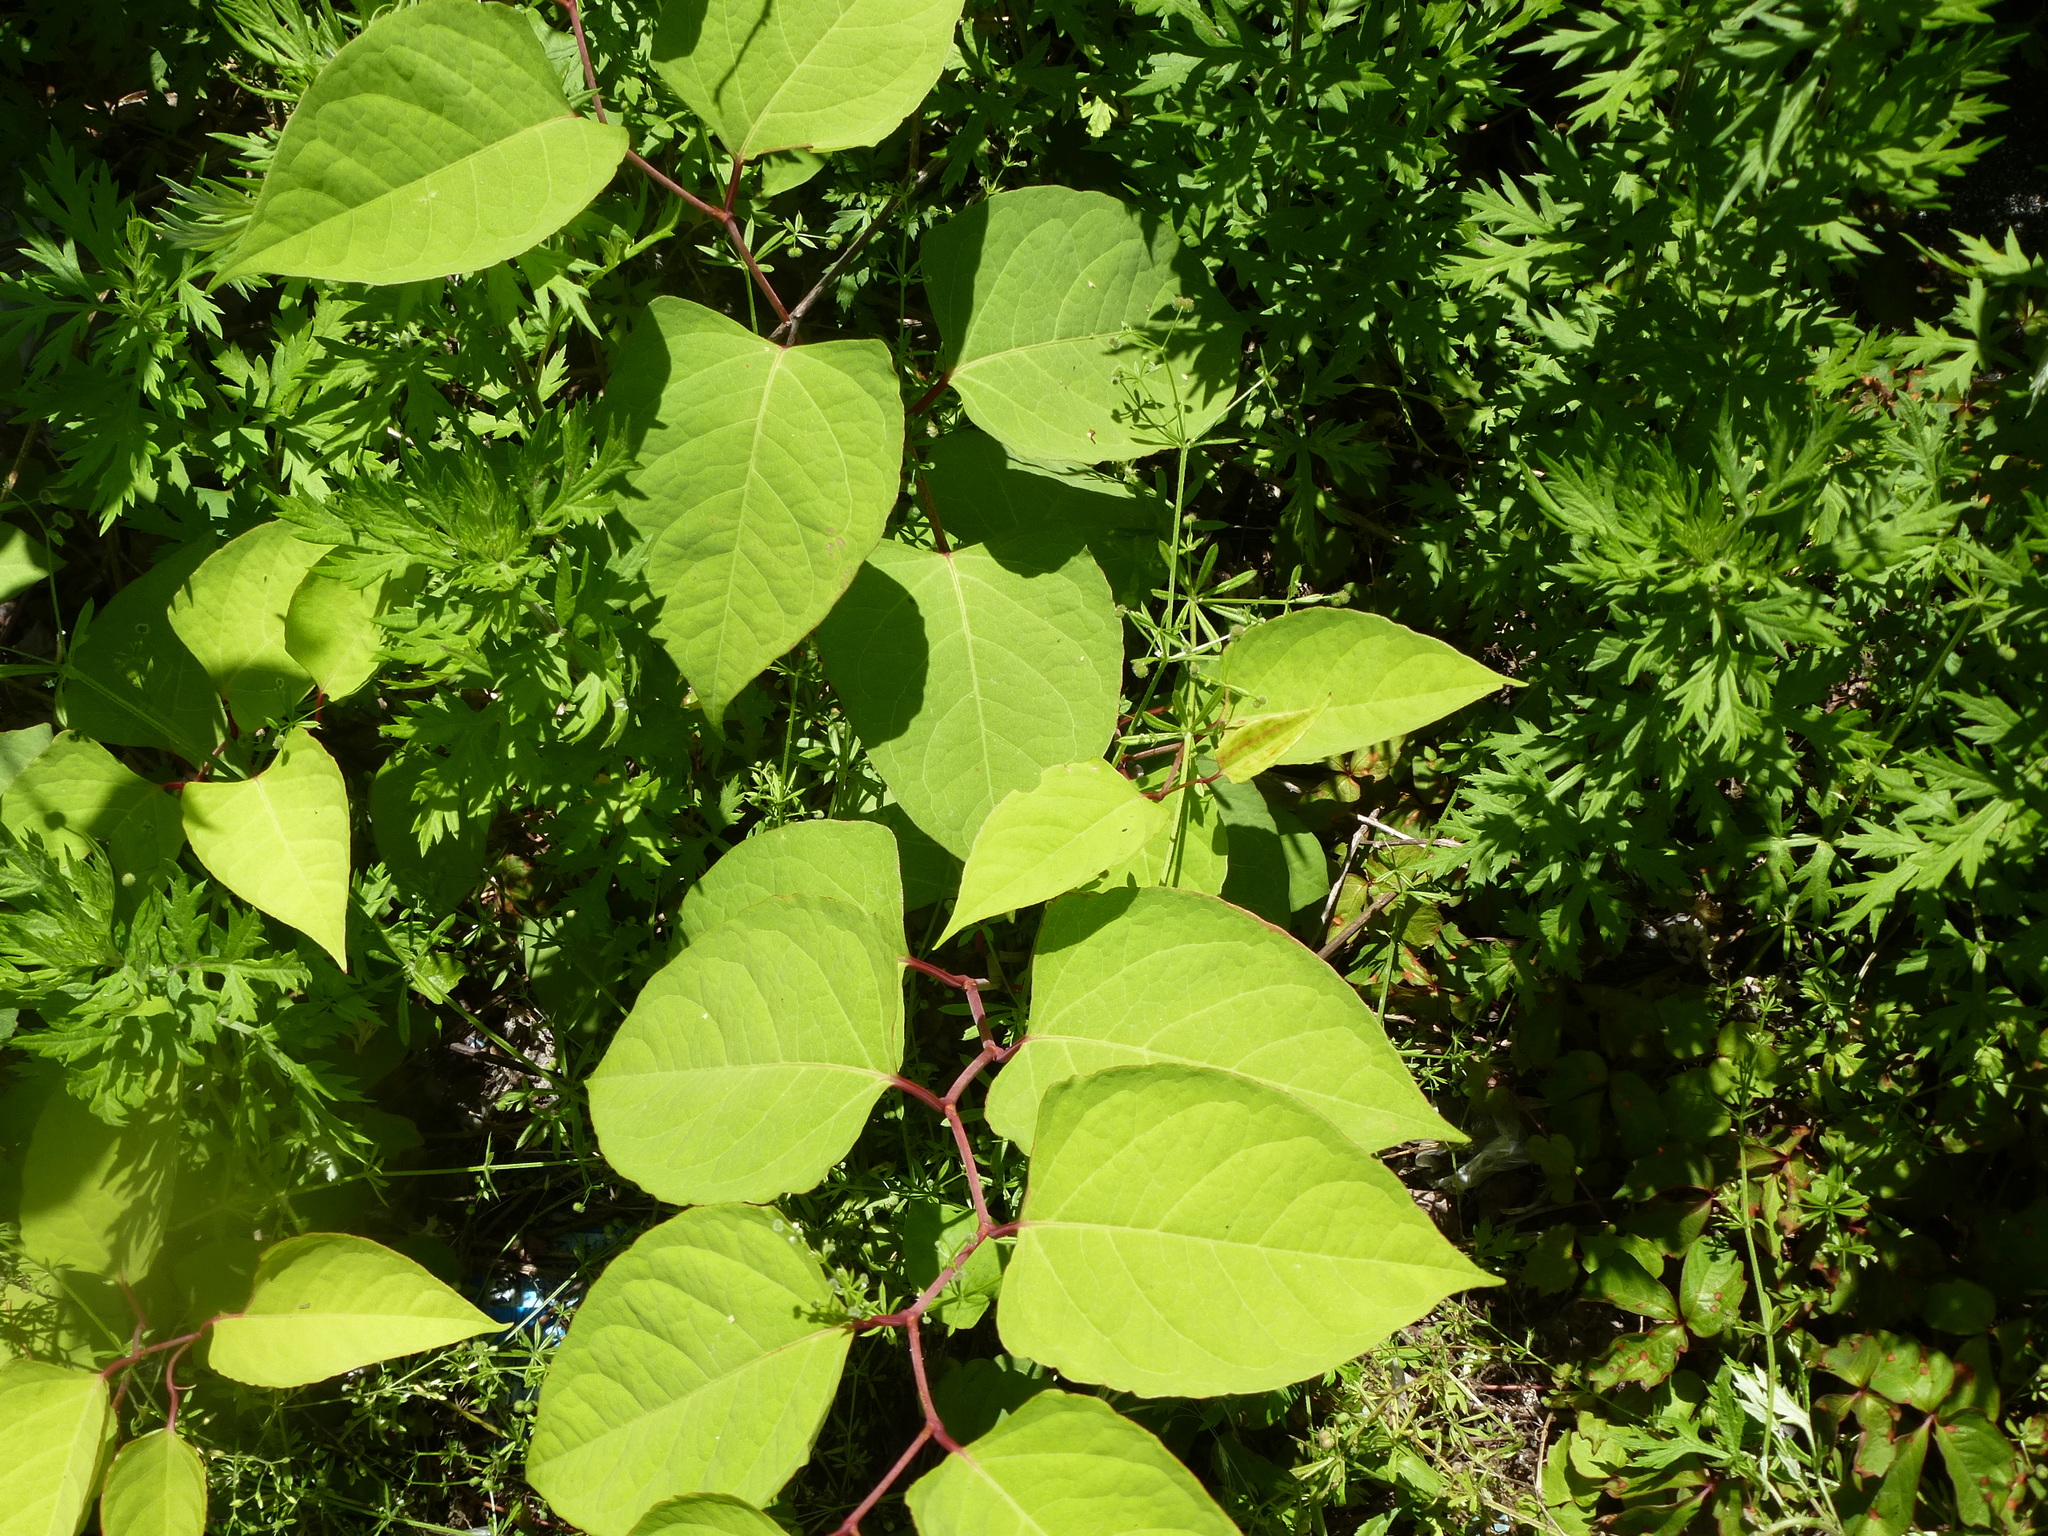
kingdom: Plantae
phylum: Tracheophyta
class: Magnoliopsida
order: Caryophyllales
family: Polygonaceae
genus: Reynoutria
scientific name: Reynoutria japonica
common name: Japanese knotweed
